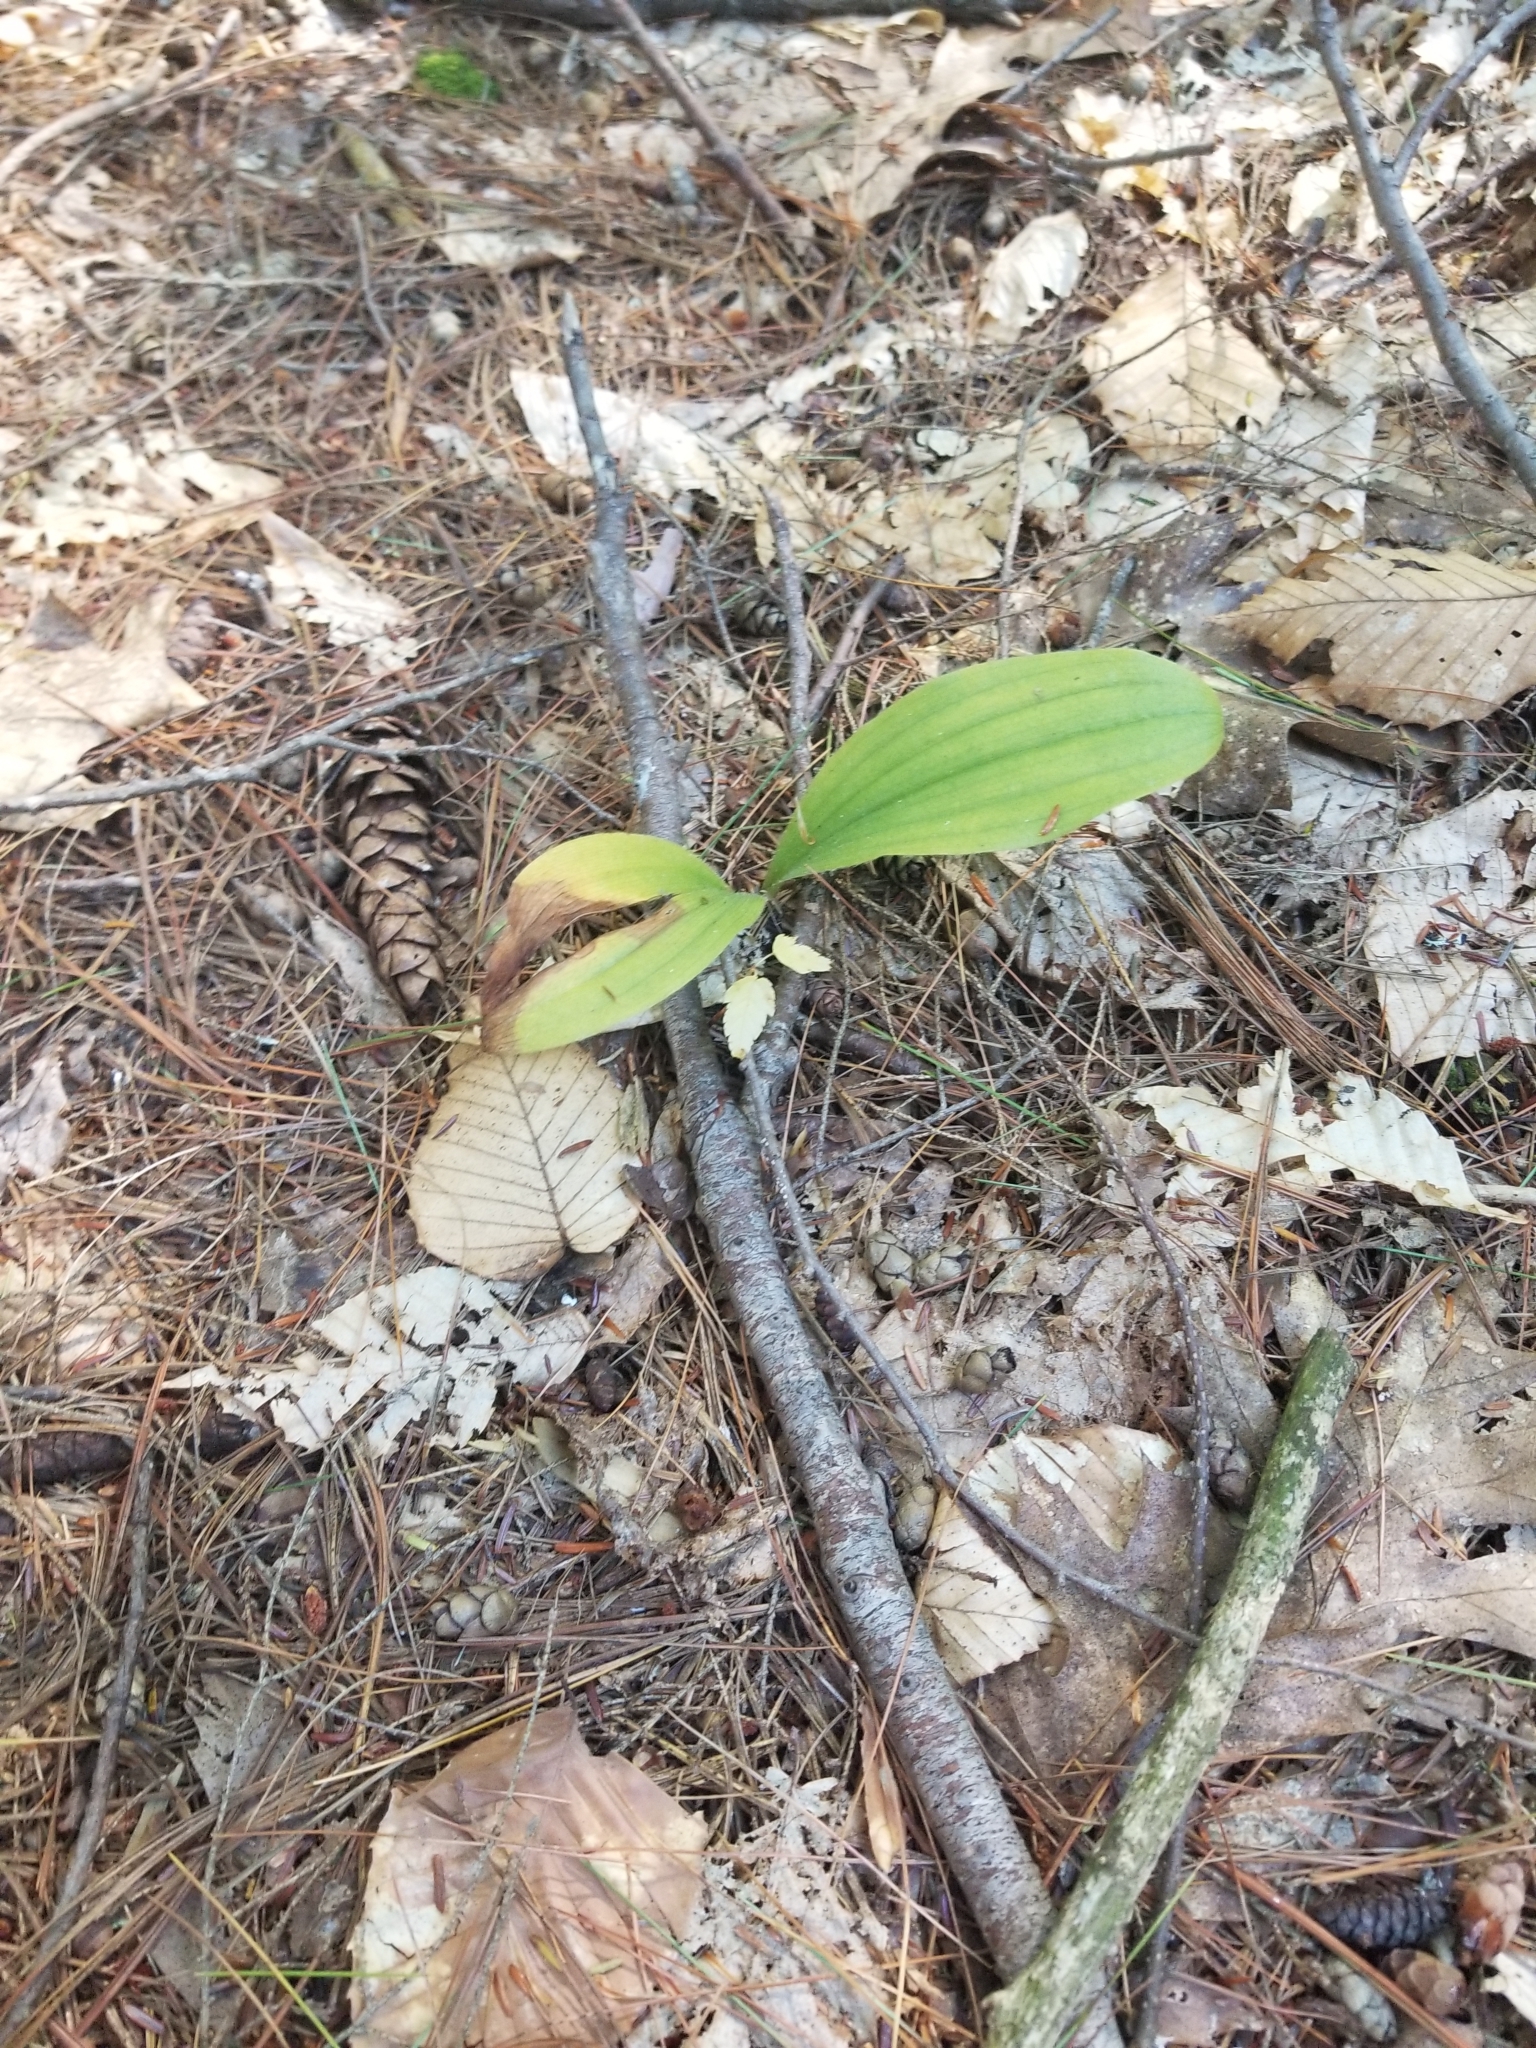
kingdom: Plantae
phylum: Tracheophyta
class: Liliopsida
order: Asparagales
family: Orchidaceae
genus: Cypripedium
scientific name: Cypripedium acaule
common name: Pink lady's-slipper
